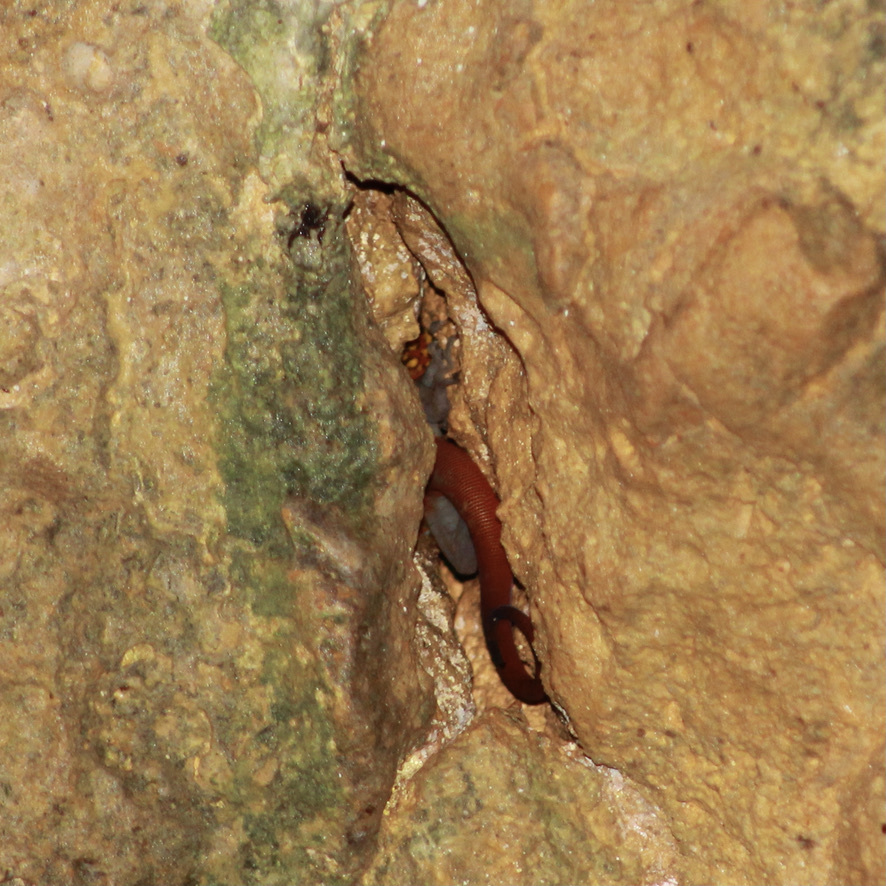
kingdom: Animalia
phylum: Chordata
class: Squamata
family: Sphaerodactylidae
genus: Gonatodes
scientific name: Gonatodes ceciliae
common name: Brilliant south american gecko
